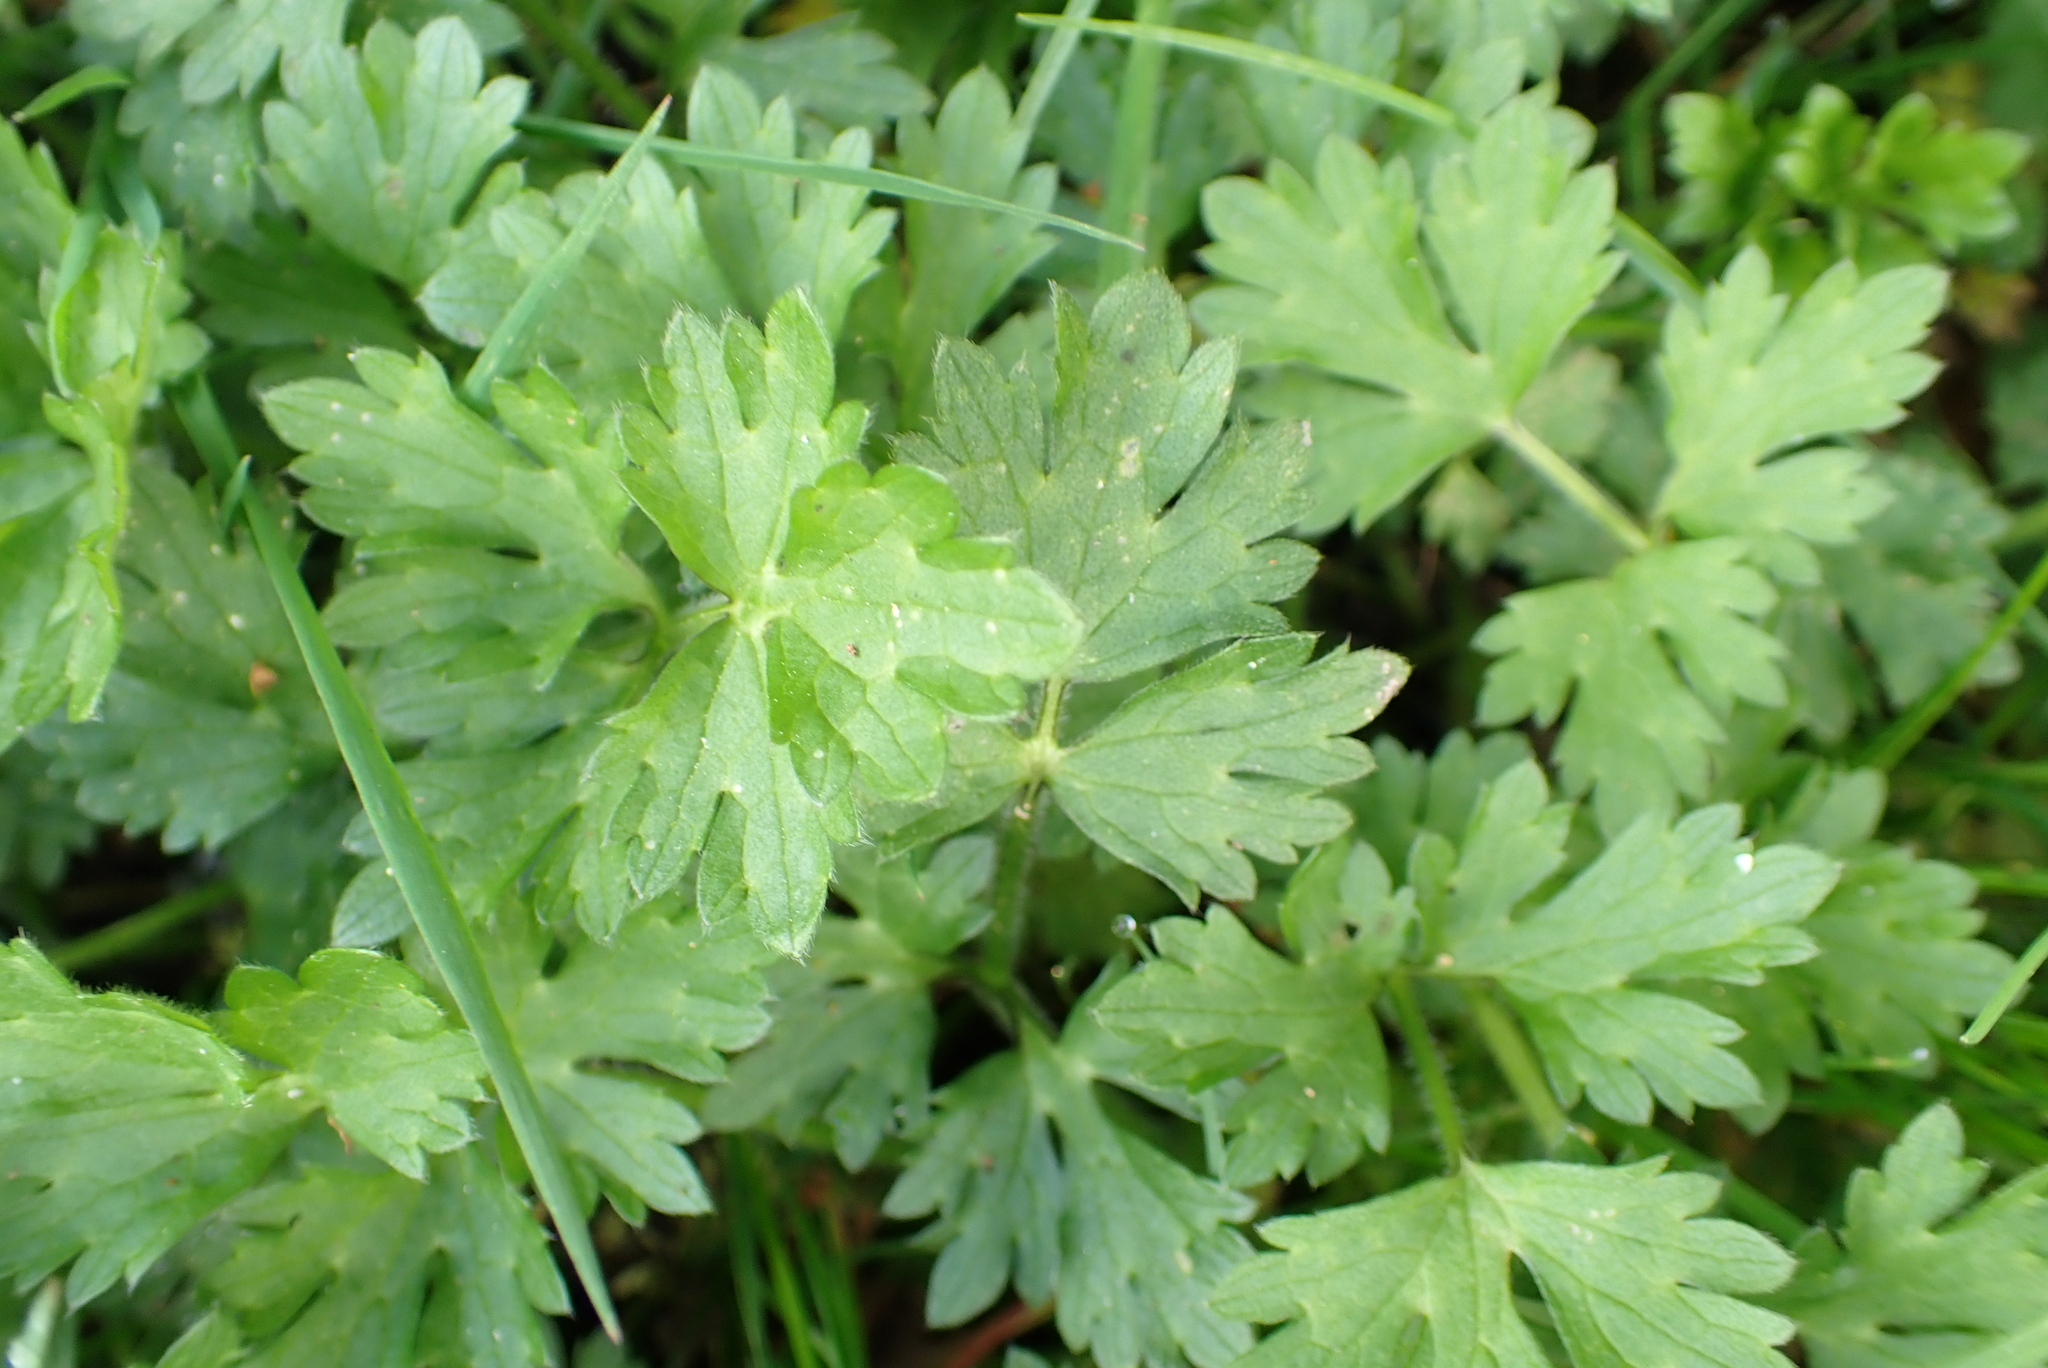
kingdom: Plantae
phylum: Tracheophyta
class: Magnoliopsida
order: Ranunculales
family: Ranunculaceae
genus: Ranunculus
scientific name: Ranunculus repens
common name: Creeping buttercup
